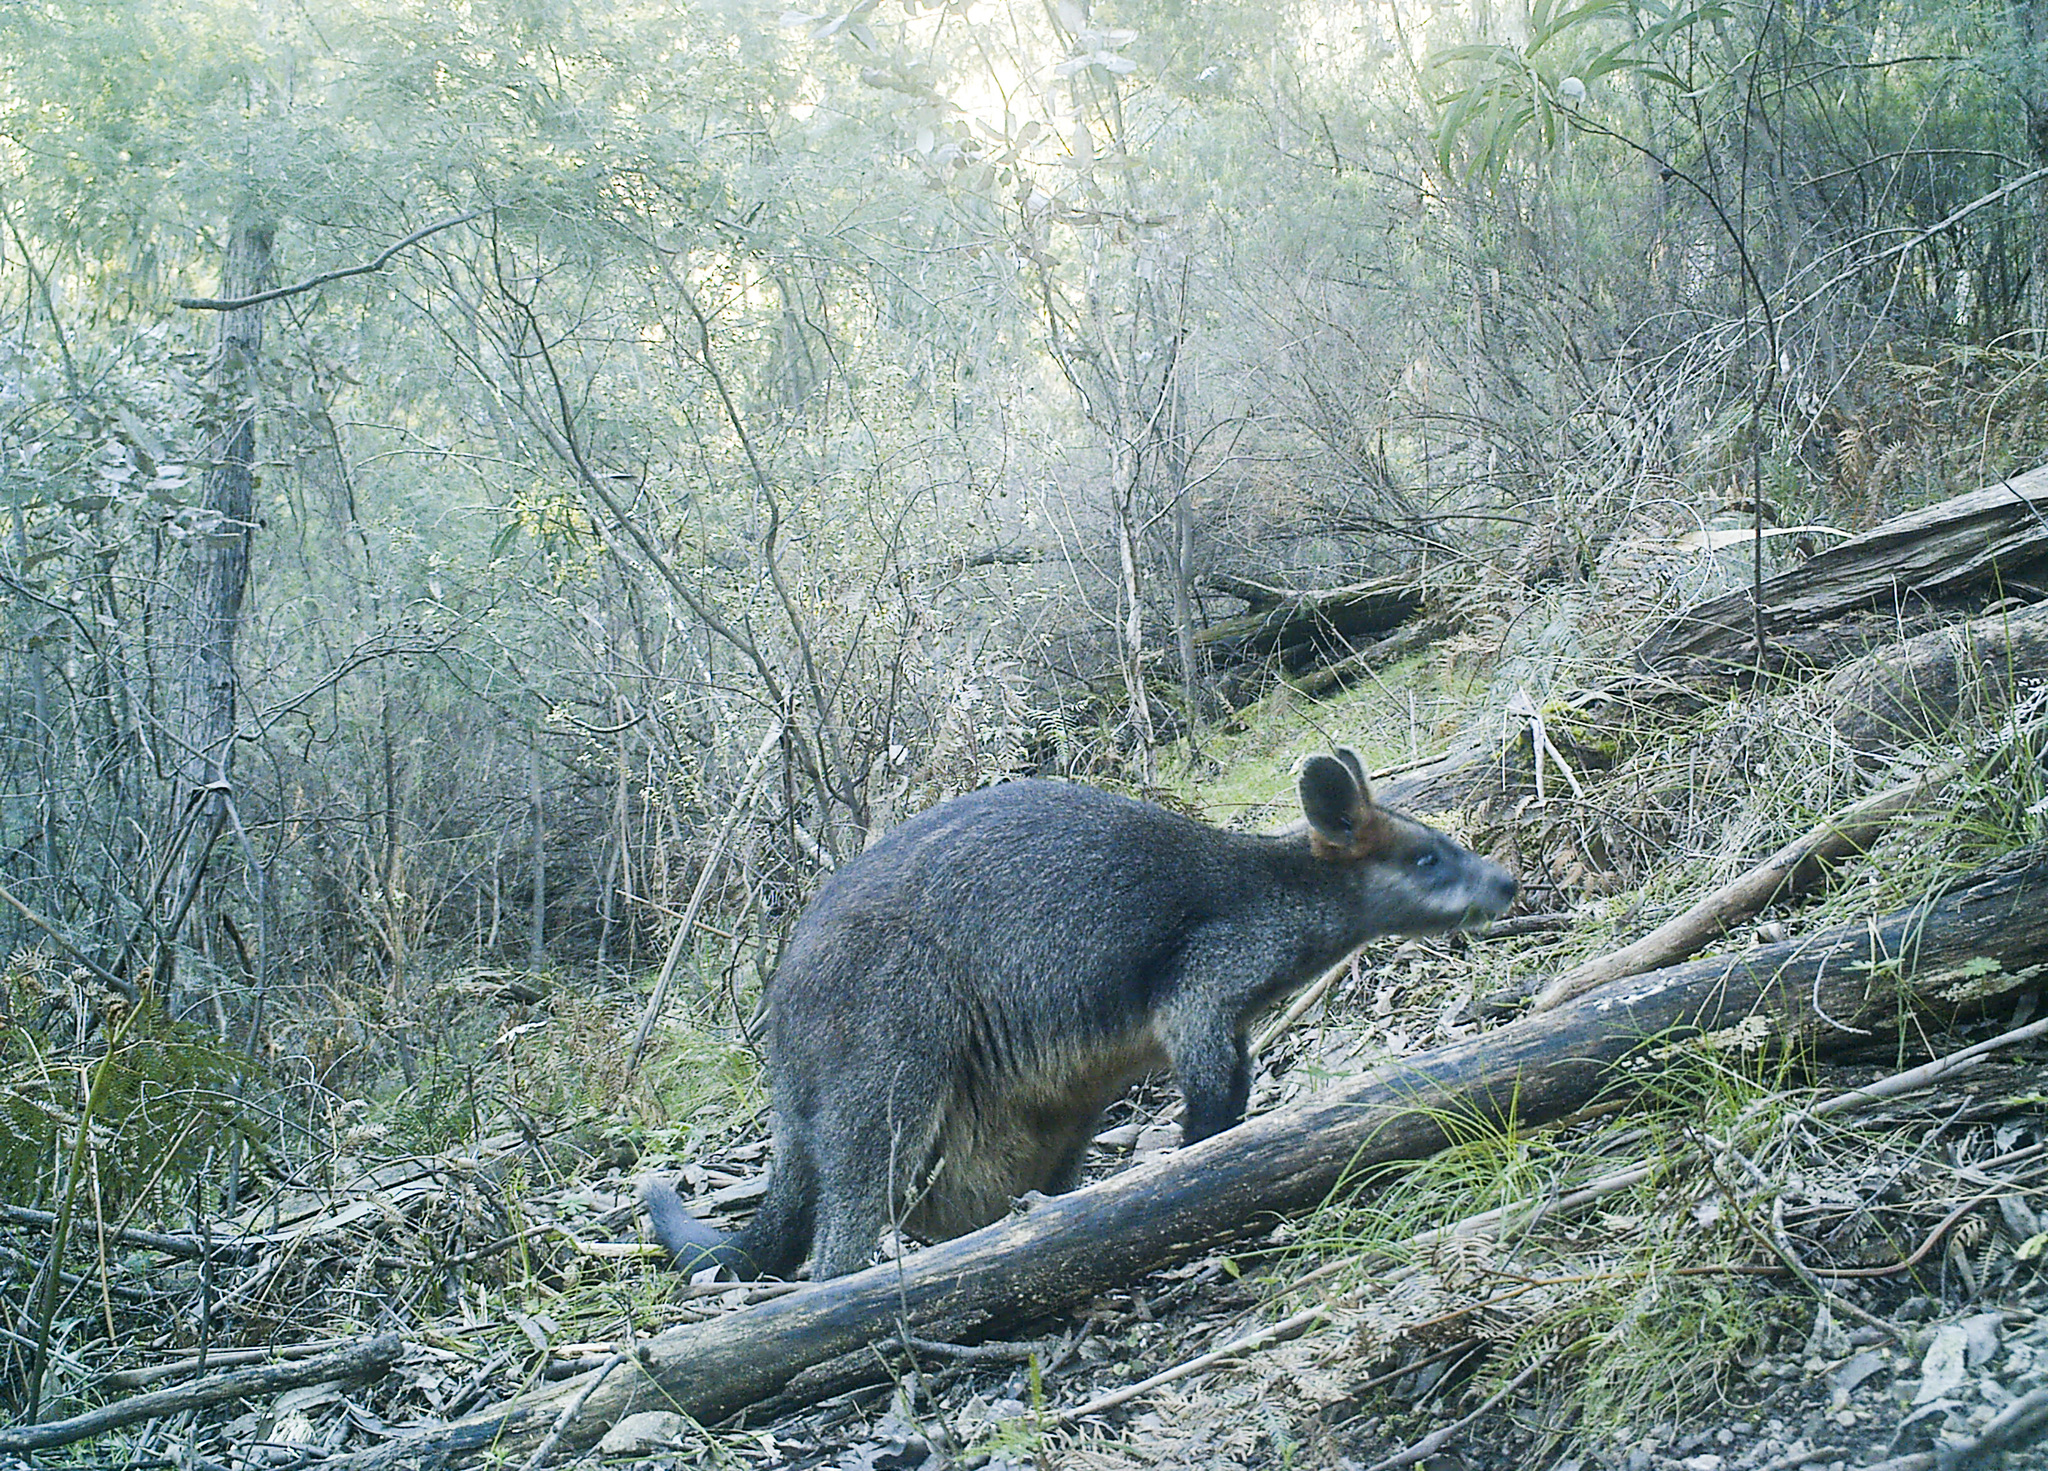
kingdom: Animalia
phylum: Chordata
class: Mammalia
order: Diprotodontia
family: Macropodidae
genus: Wallabia
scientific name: Wallabia bicolor
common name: Swamp wallaby
